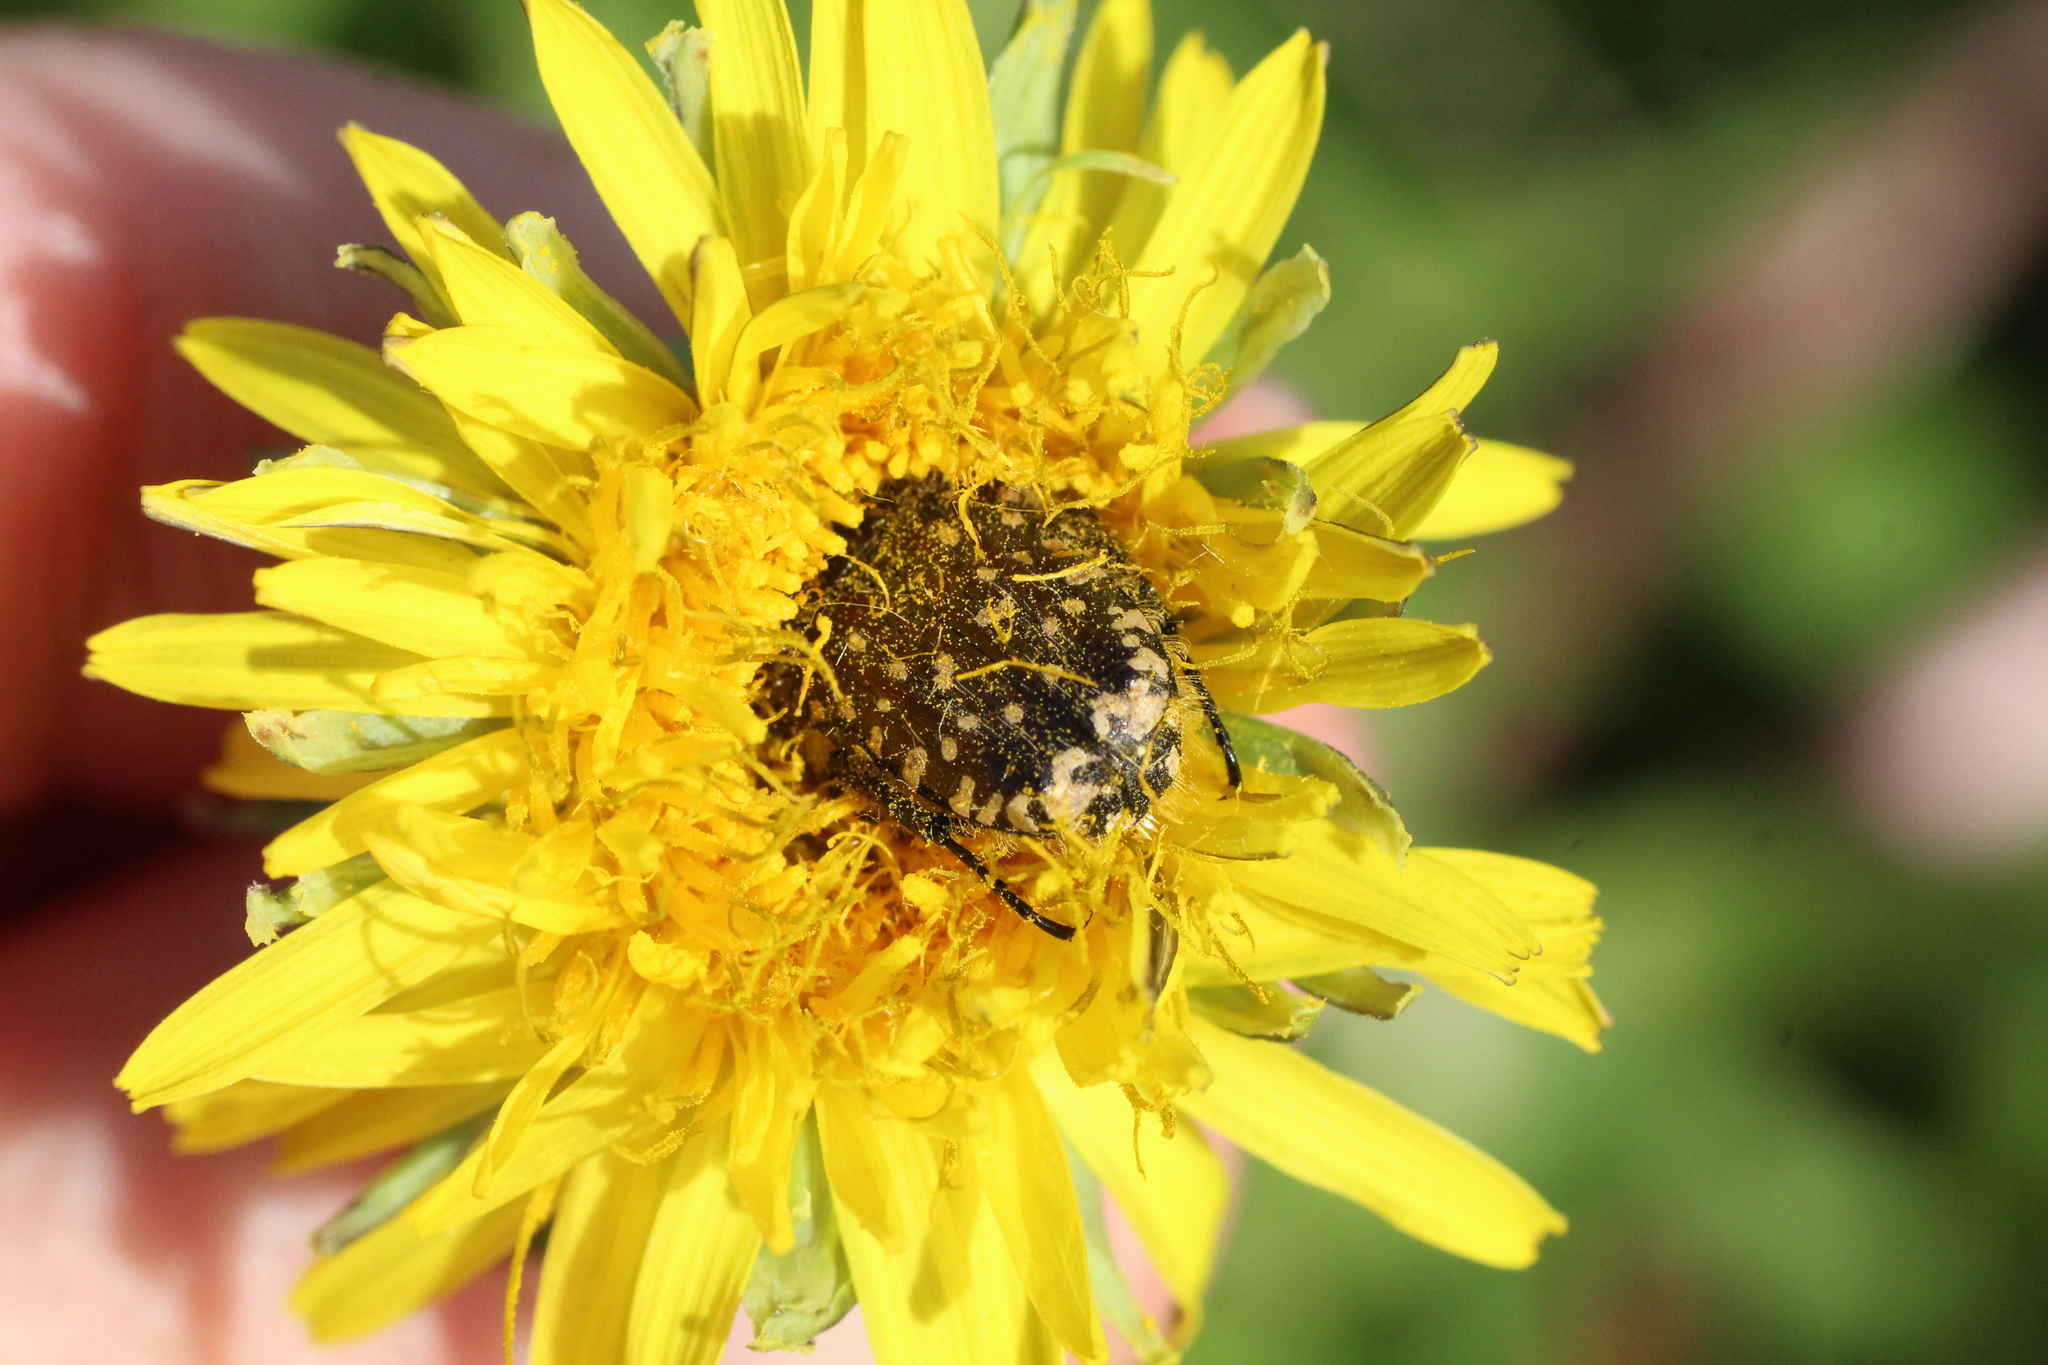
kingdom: Animalia
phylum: Arthropoda
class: Insecta
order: Coleoptera
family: Scarabaeidae
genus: Oxythyrea
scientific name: Oxythyrea funesta
